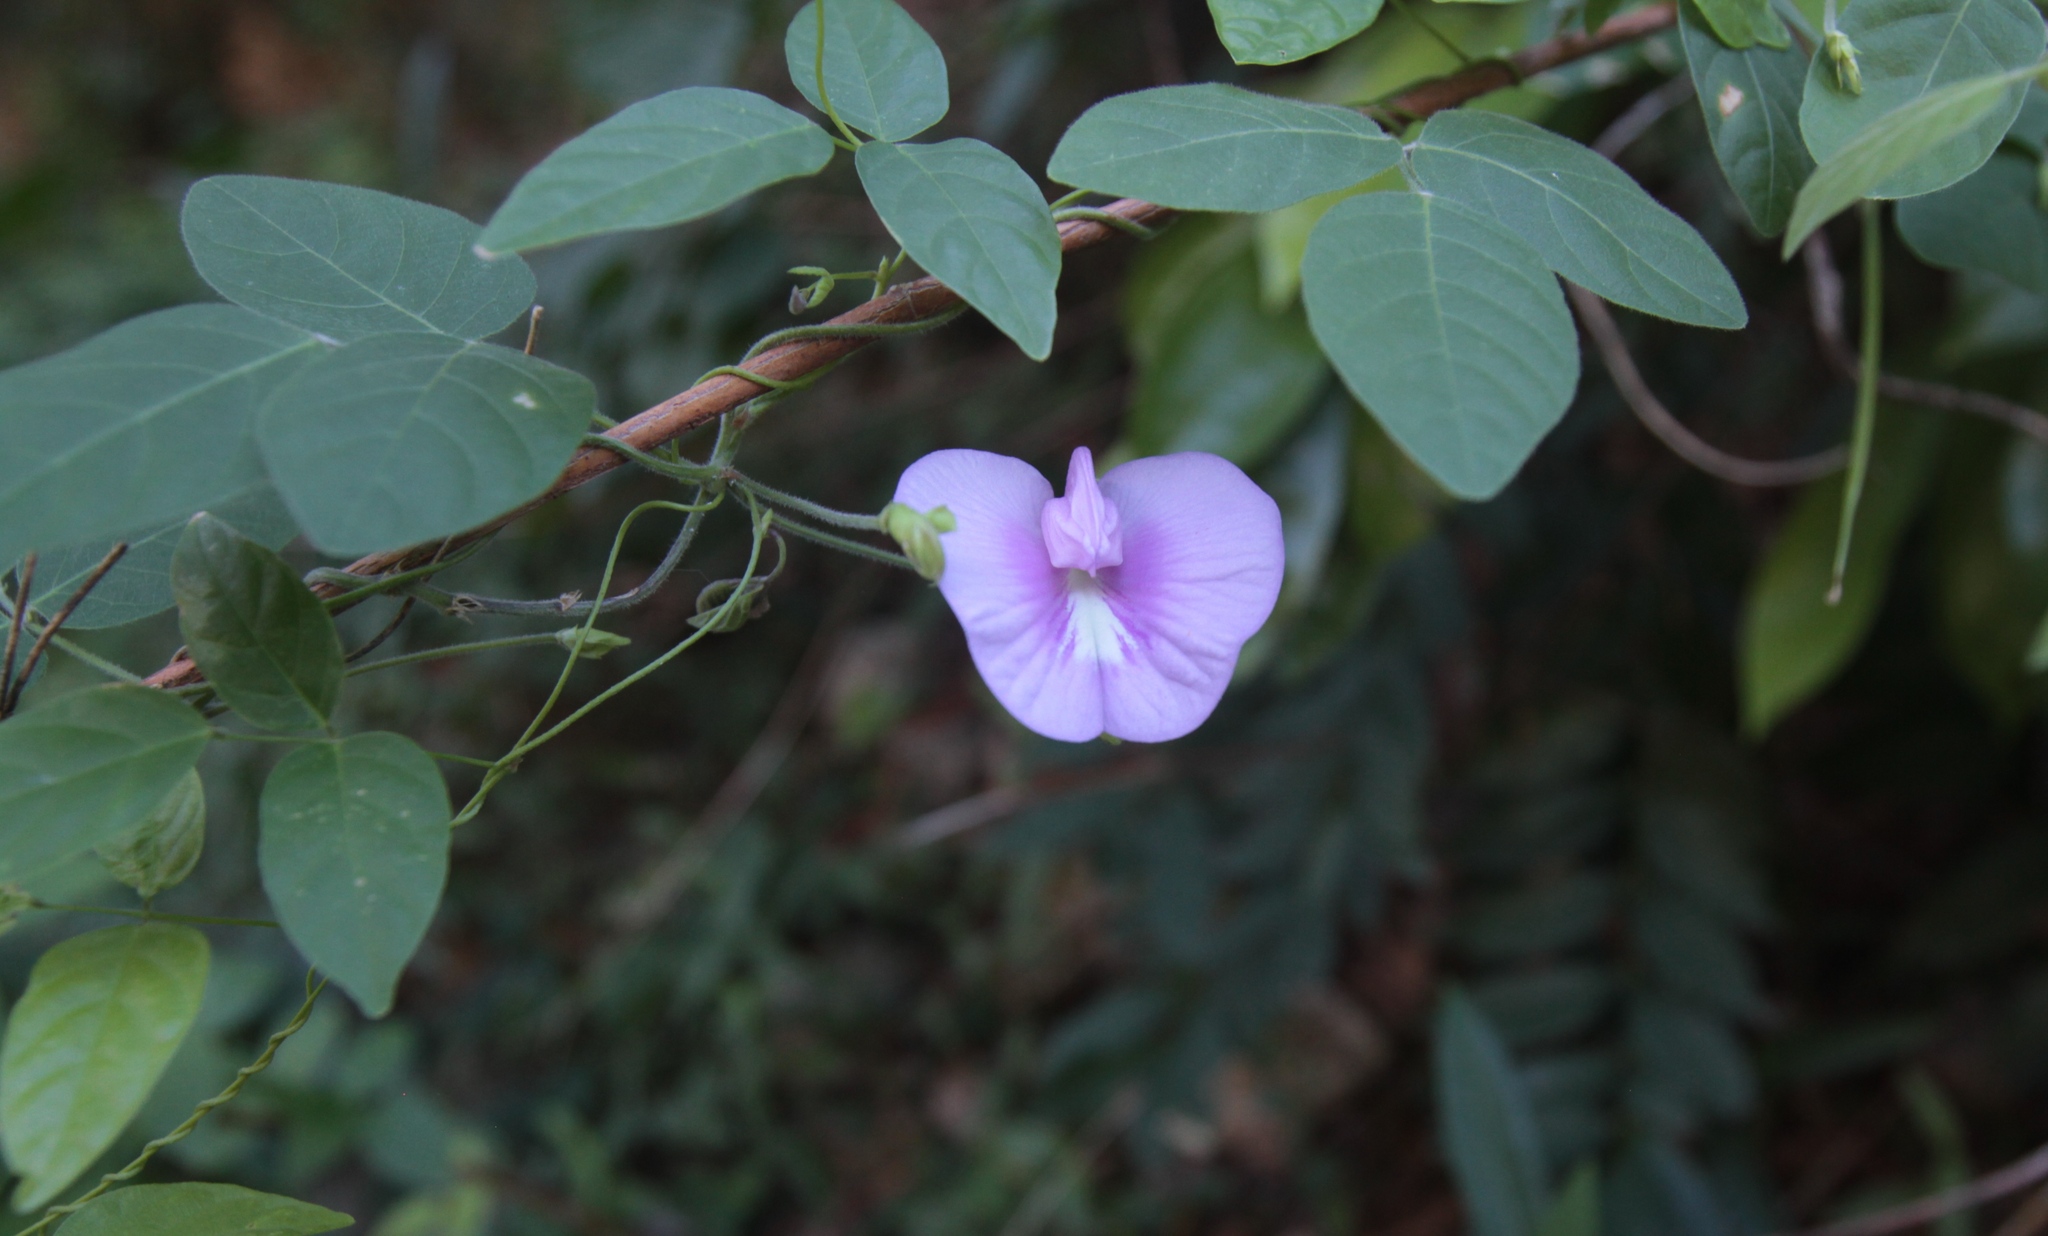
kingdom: Plantae
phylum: Tracheophyta
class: Magnoliopsida
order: Fabales
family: Fabaceae
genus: Centrosema
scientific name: Centrosema virginianum
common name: Butterfly-pea
